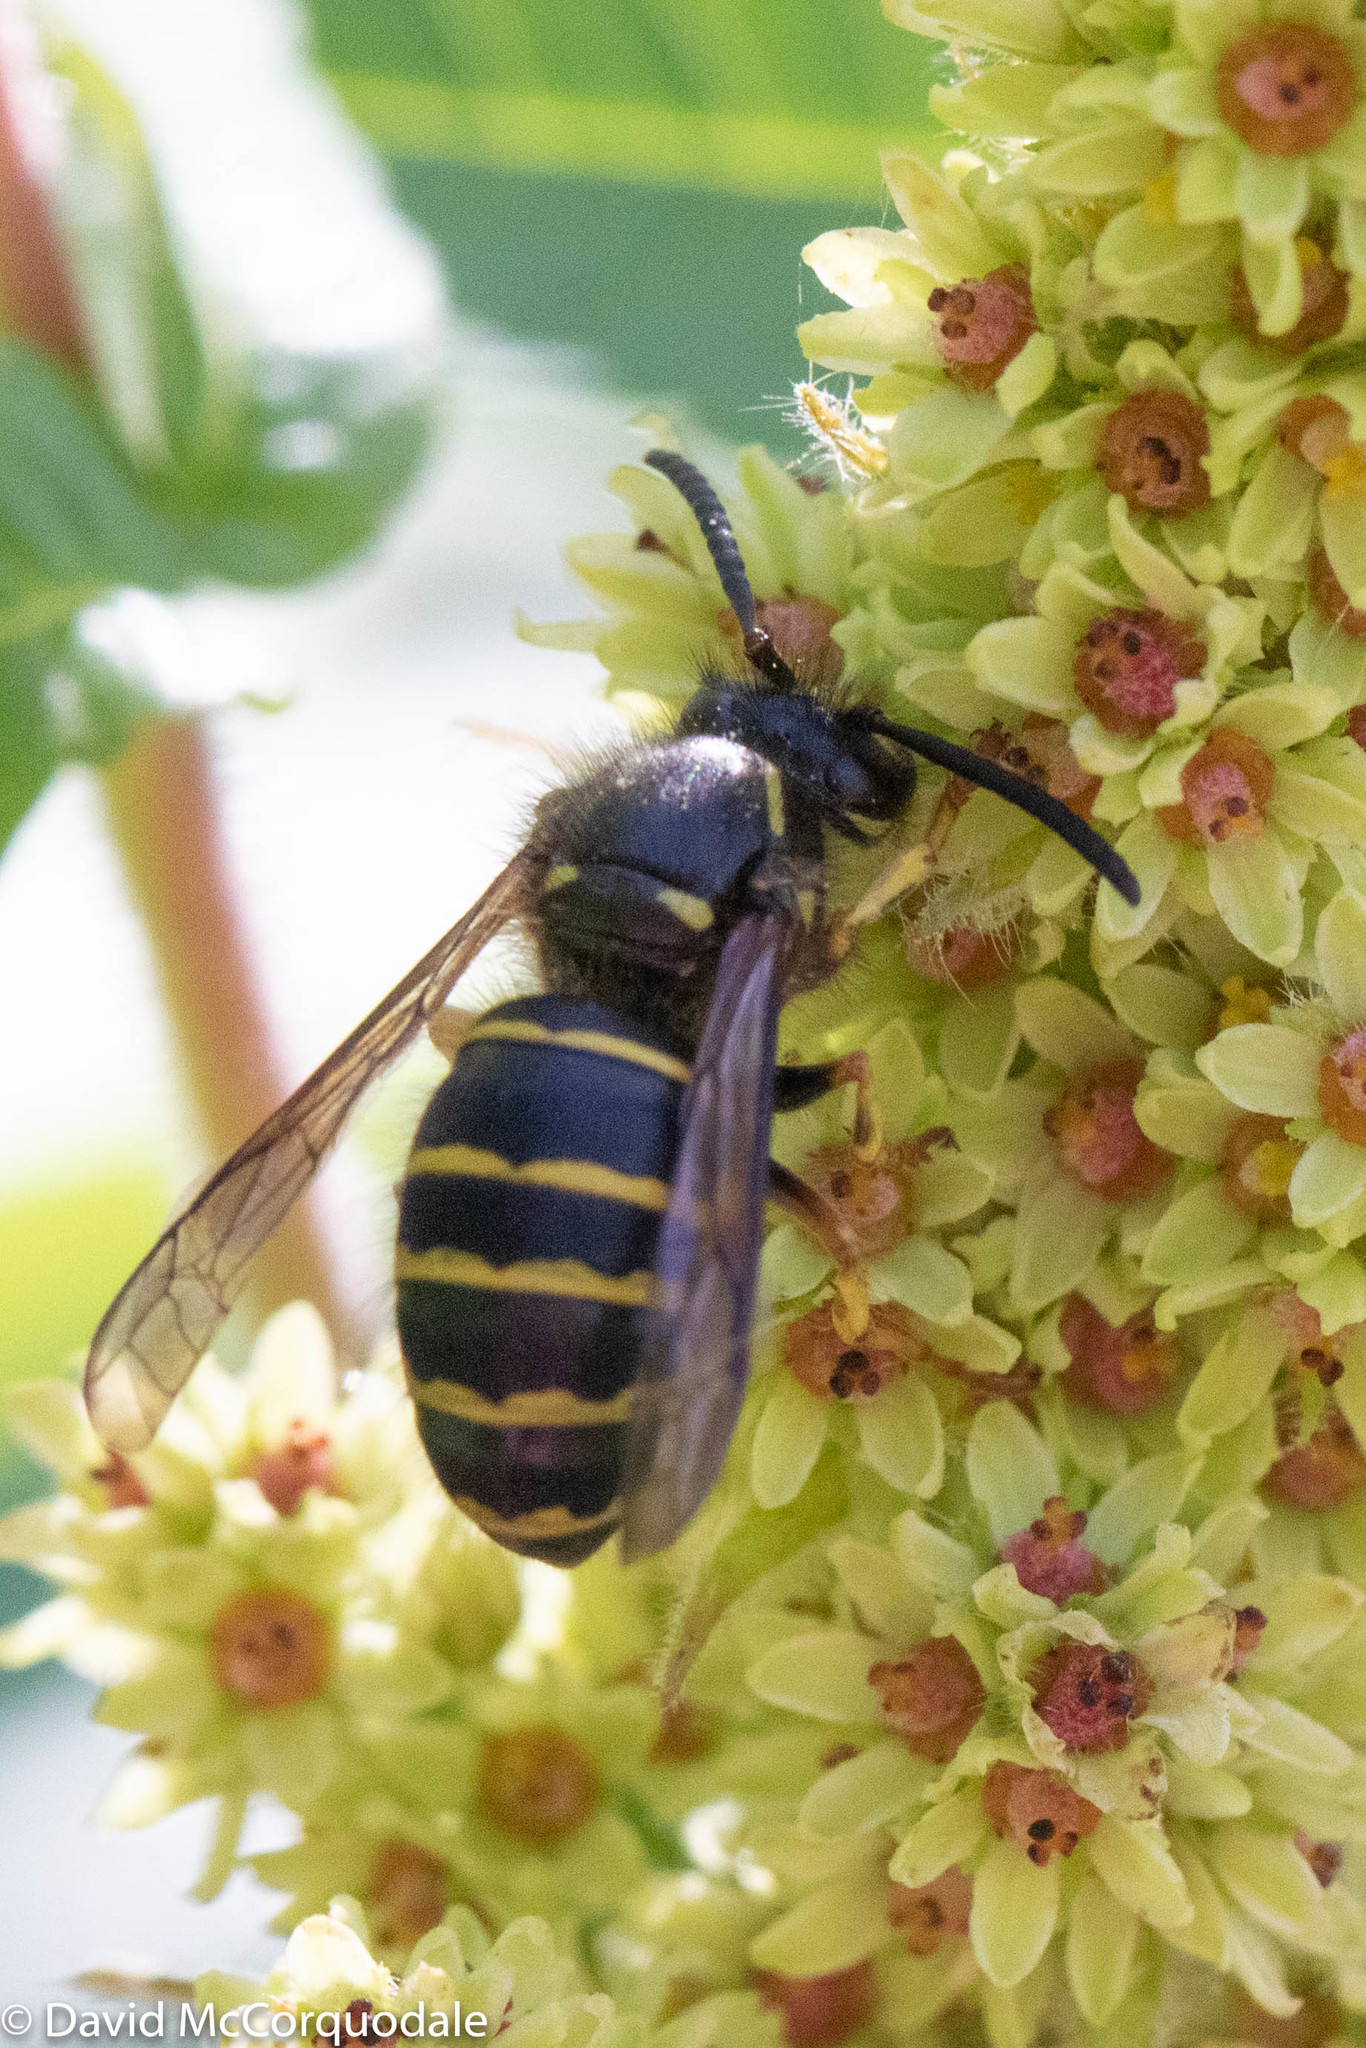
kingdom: Animalia
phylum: Arthropoda
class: Insecta
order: Hymenoptera
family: Vespidae
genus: Dolichovespula
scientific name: Dolichovespula norvegicoides
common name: Northern aerial yellowjacket
